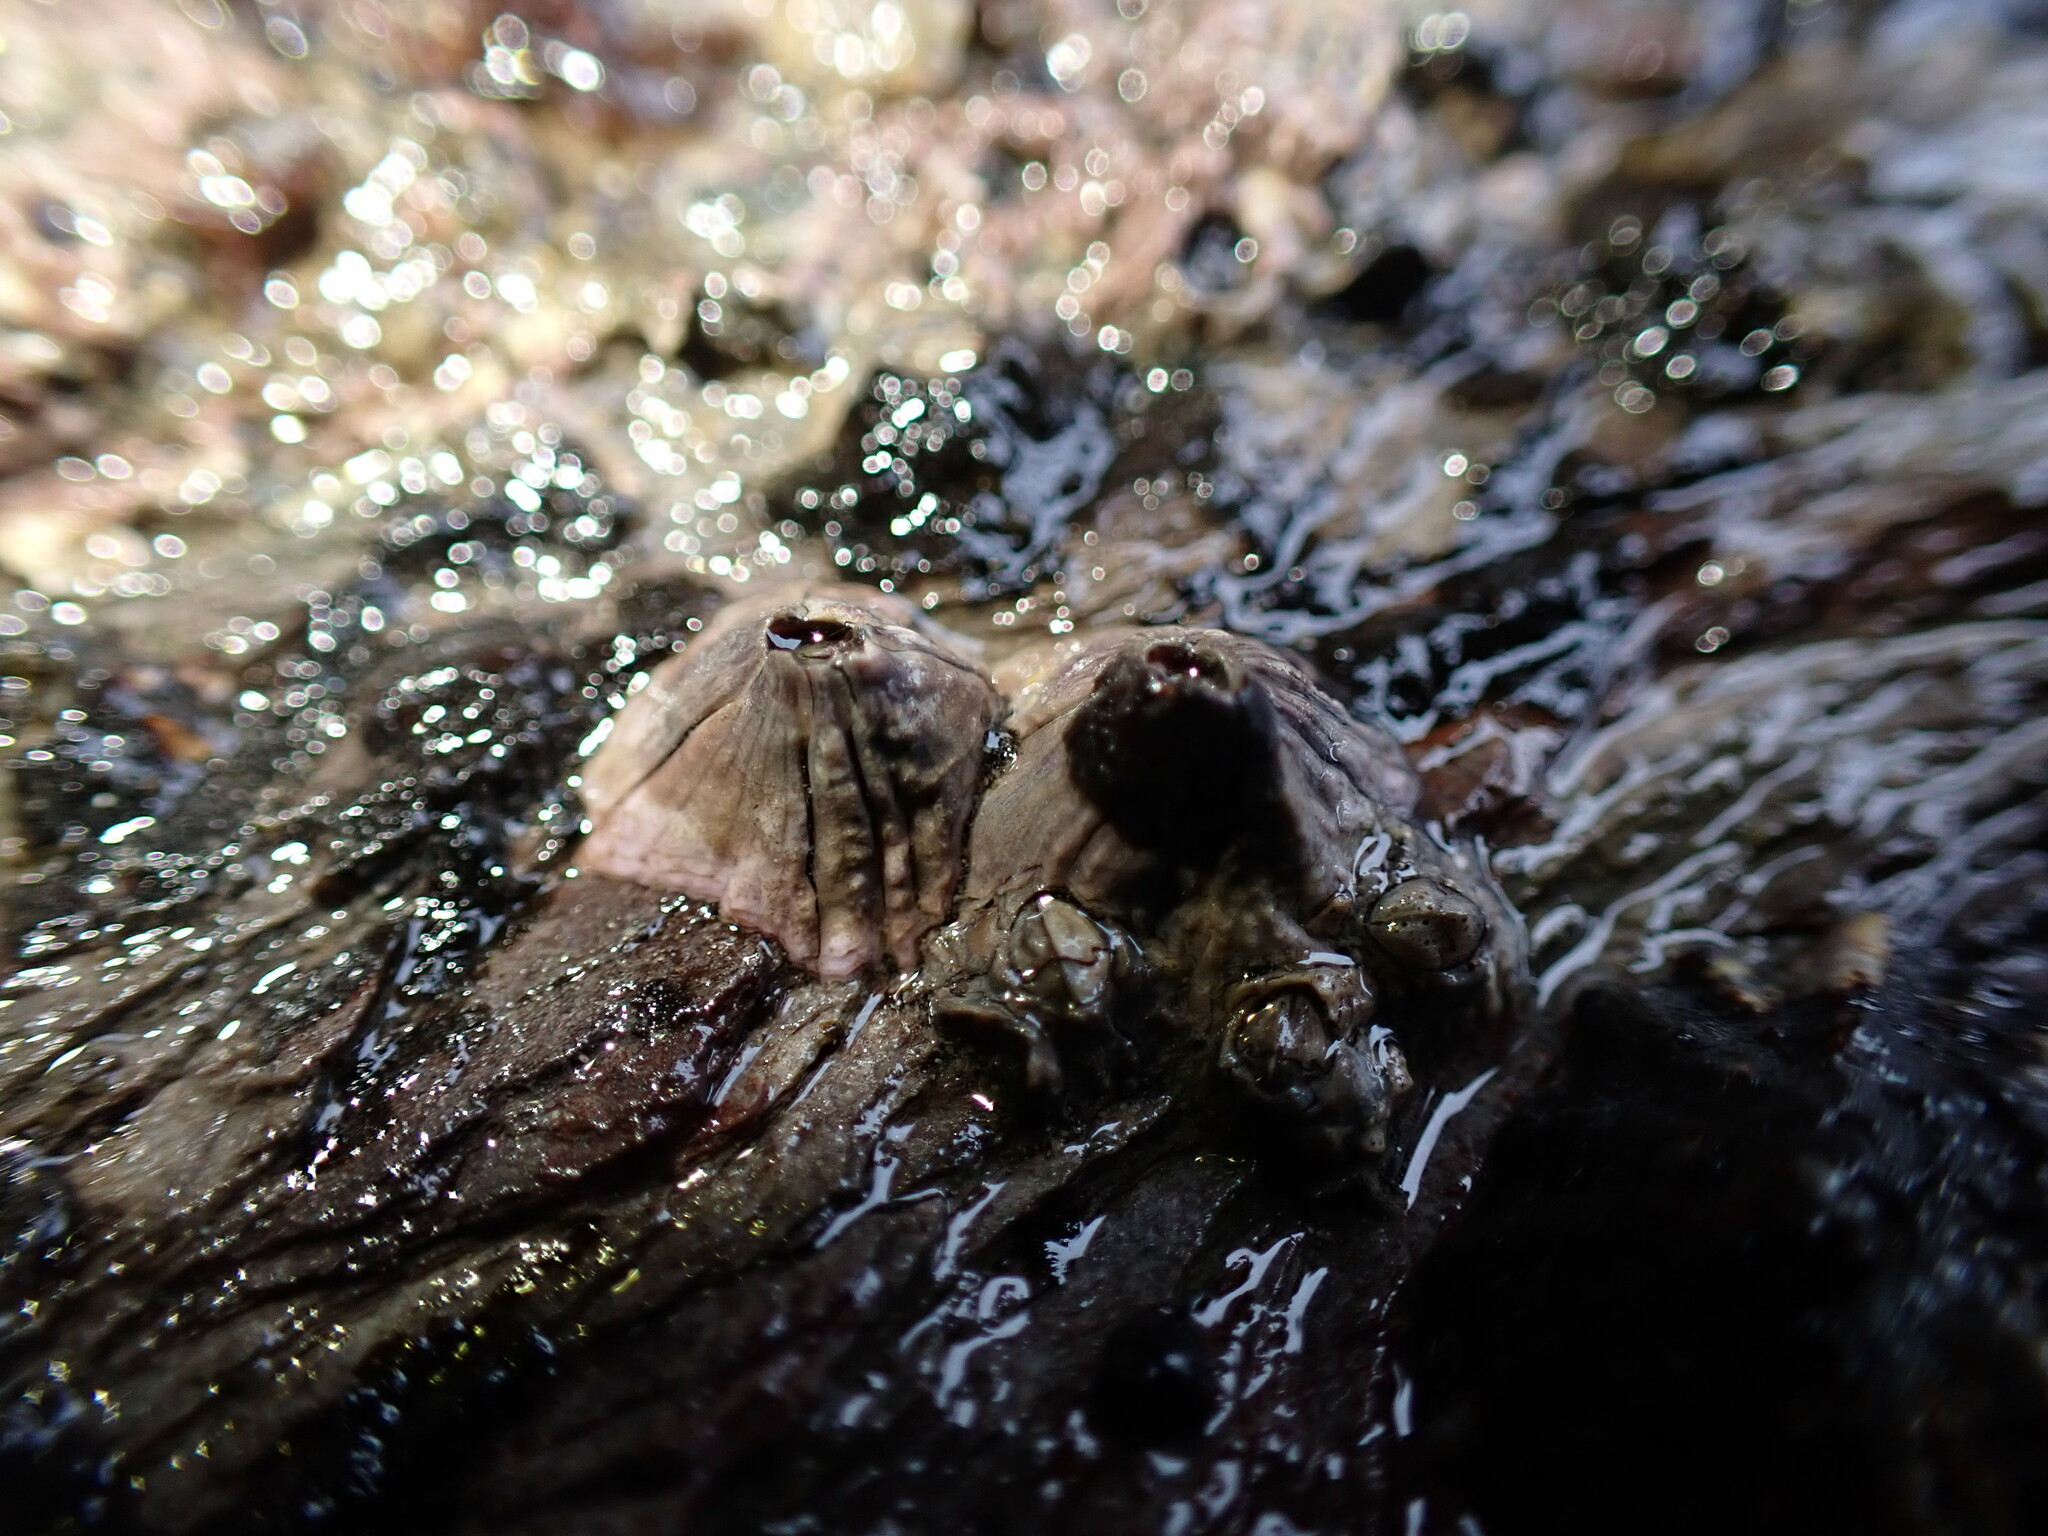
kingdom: Animalia
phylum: Arthropoda
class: Maxillopoda
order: Sessilia
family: Balanidae
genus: Perforatus
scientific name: Perforatus perforatus
